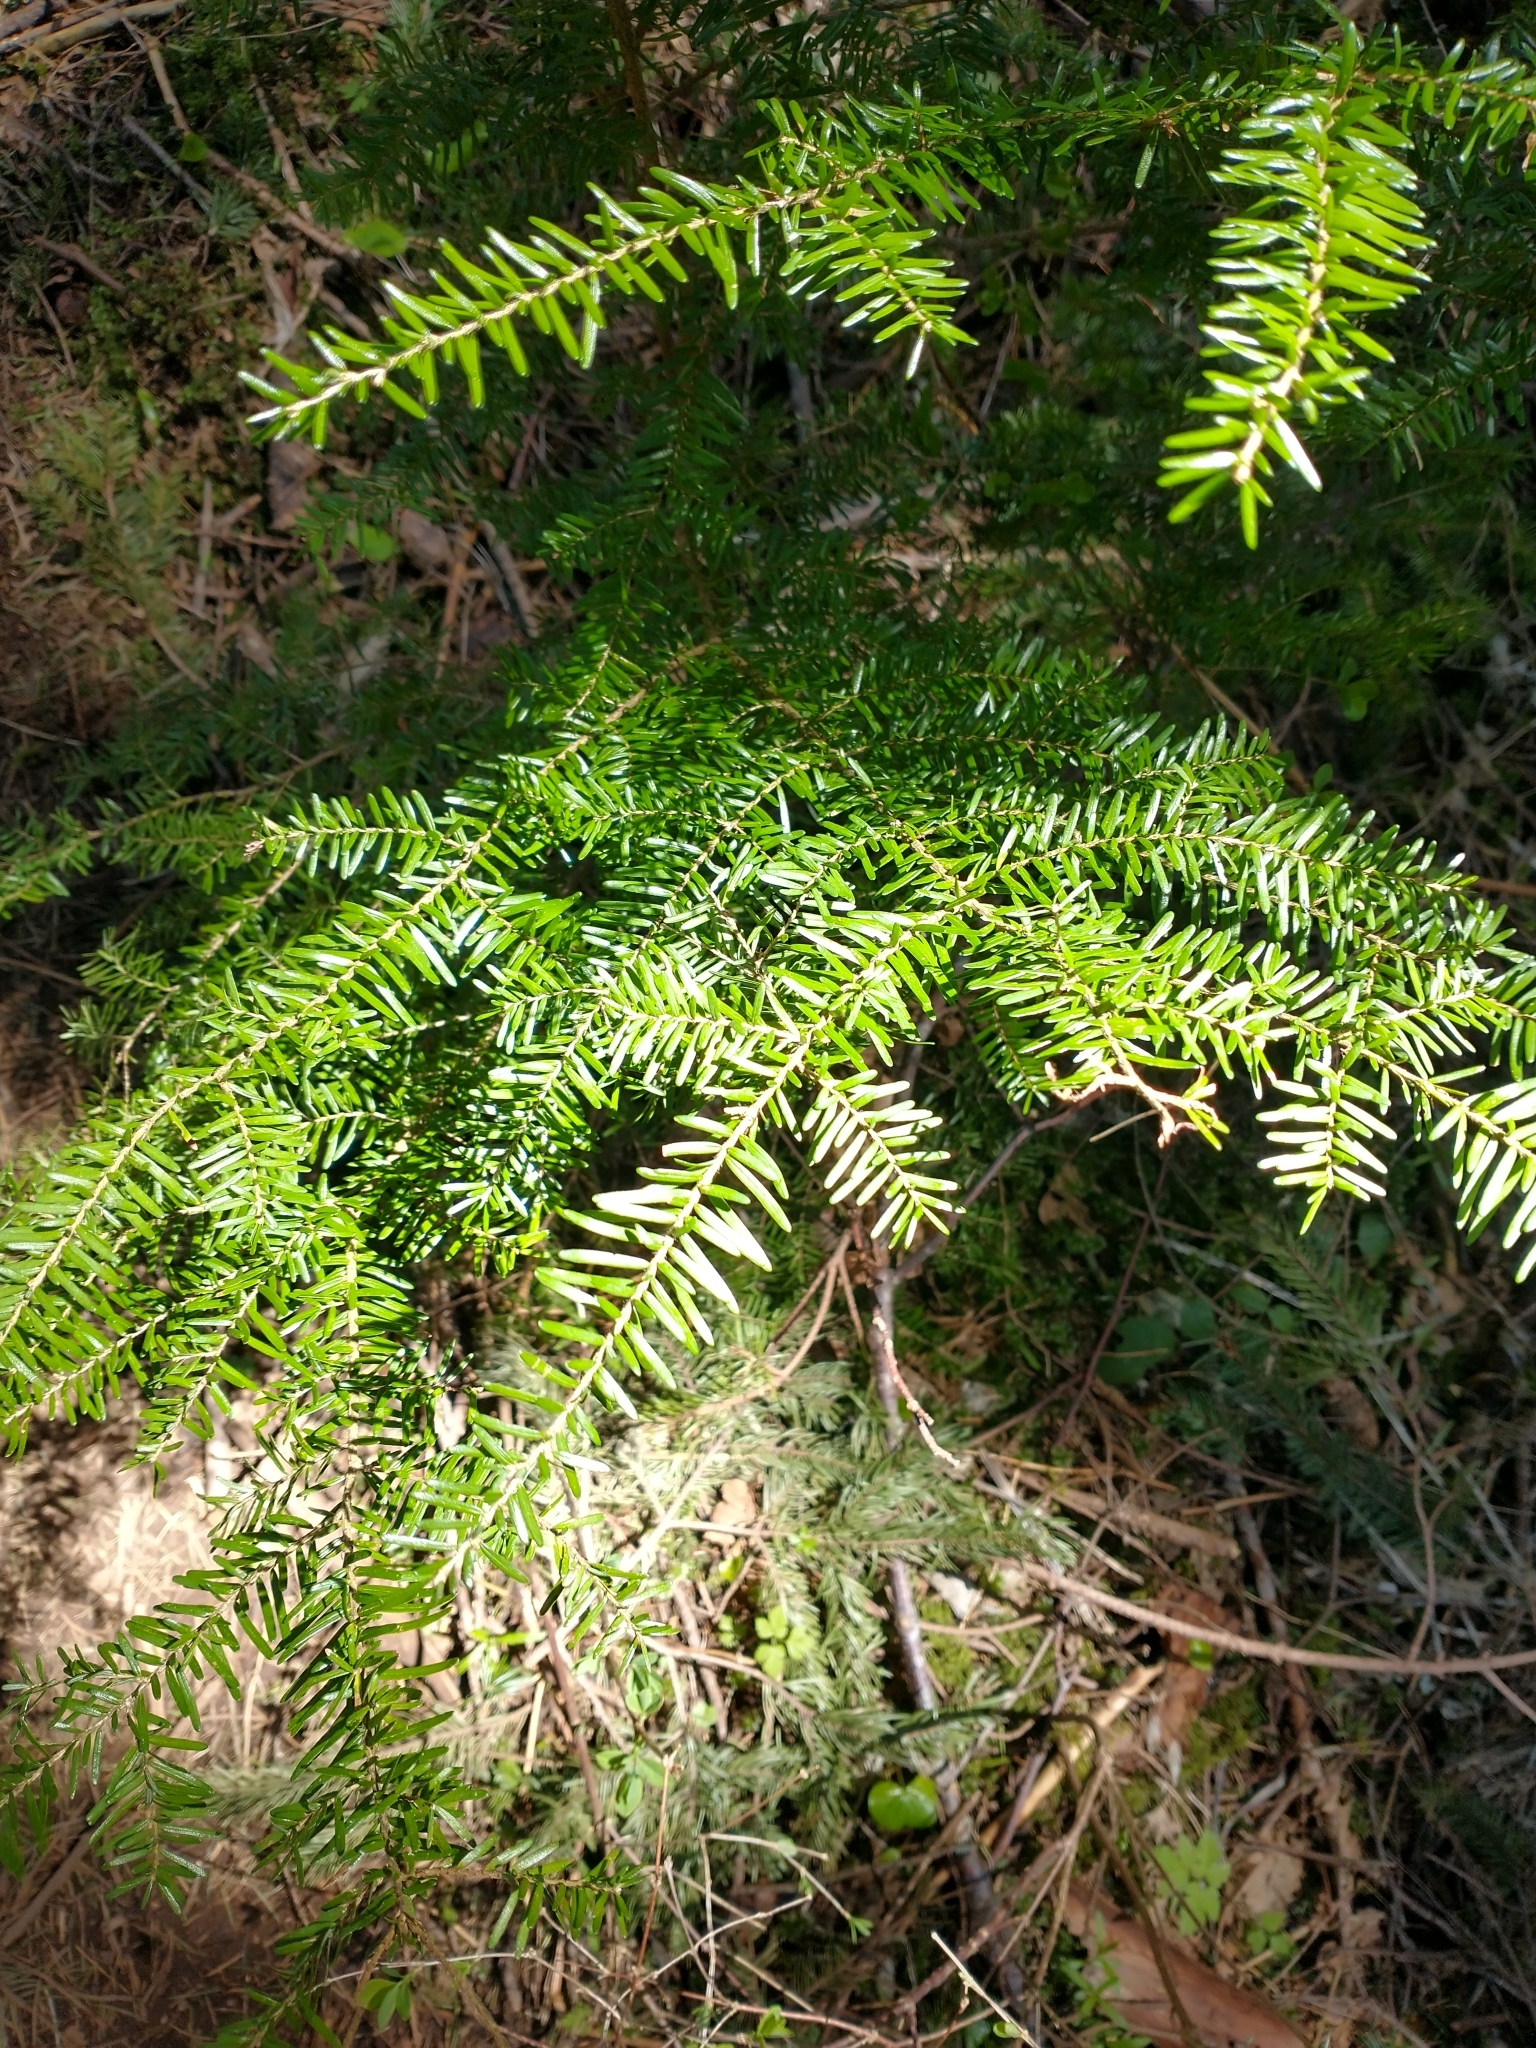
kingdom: Plantae
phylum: Tracheophyta
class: Pinopsida
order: Pinales
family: Pinaceae
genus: Tsuga
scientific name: Tsuga heterophylla
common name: Western hemlock
